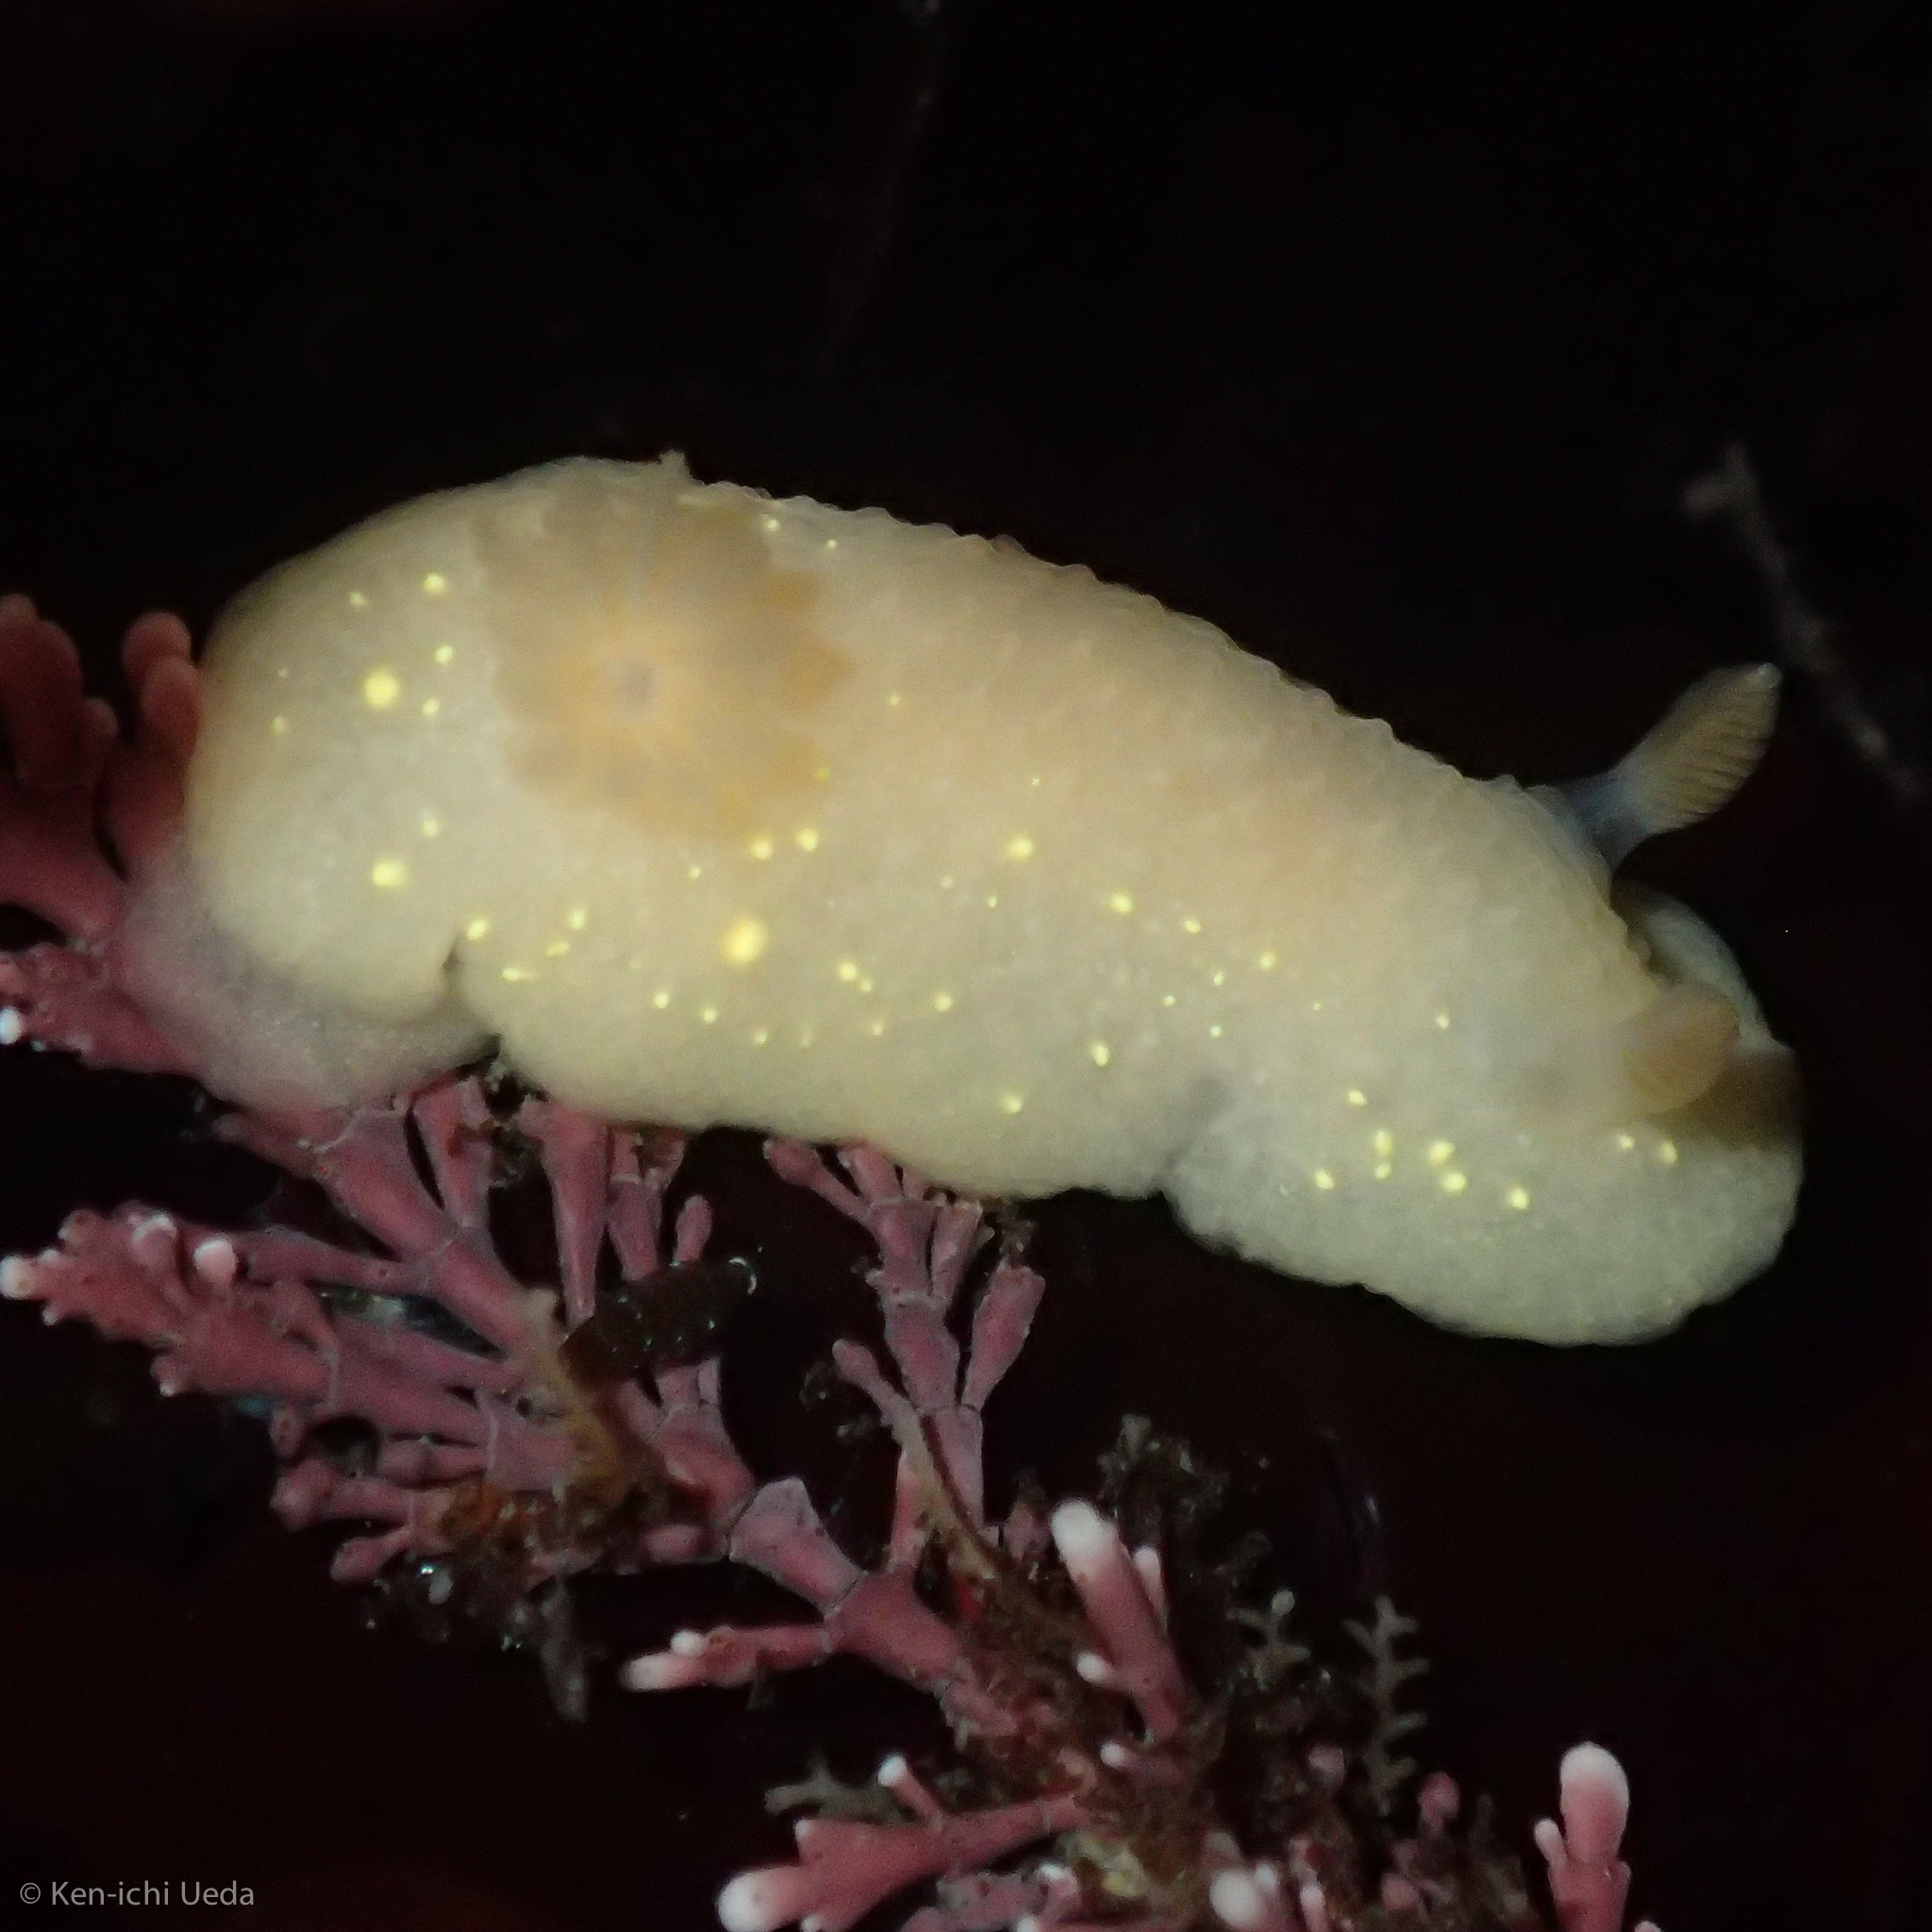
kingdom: Animalia
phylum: Mollusca
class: Gastropoda
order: Nudibranchia
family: Cadlinidae
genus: Cadlina
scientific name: Cadlina modesta
